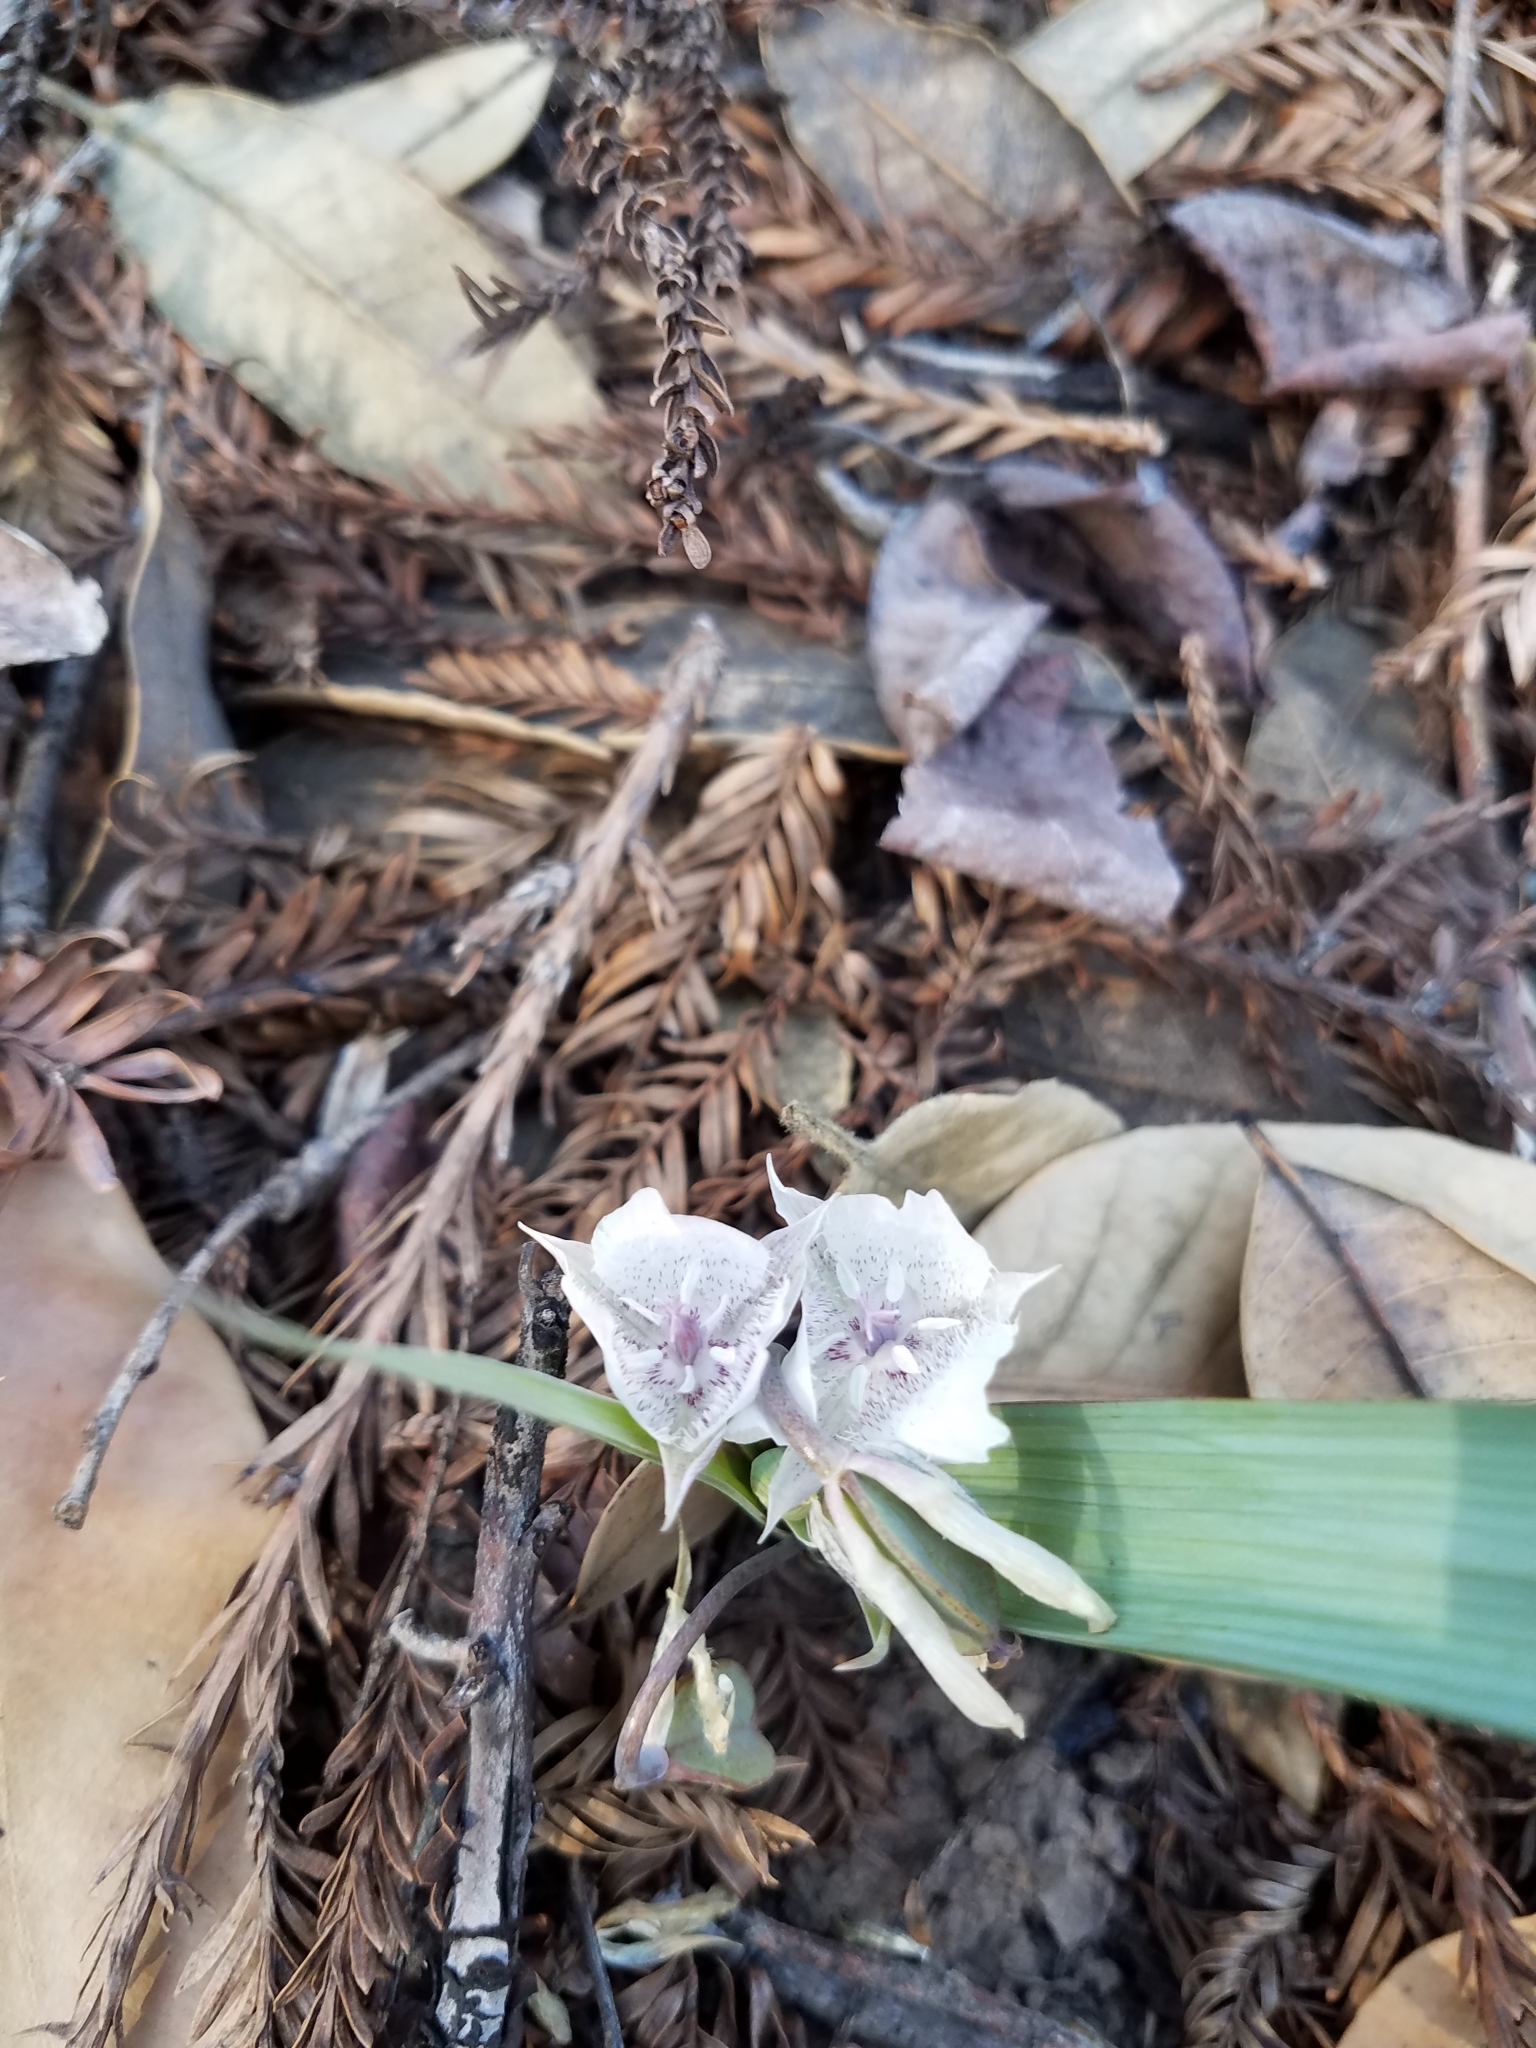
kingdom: Plantae
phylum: Tracheophyta
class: Liliopsida
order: Liliales
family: Liliaceae
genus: Calochortus
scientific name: Calochortus tolmiei
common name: Pussy-ears
